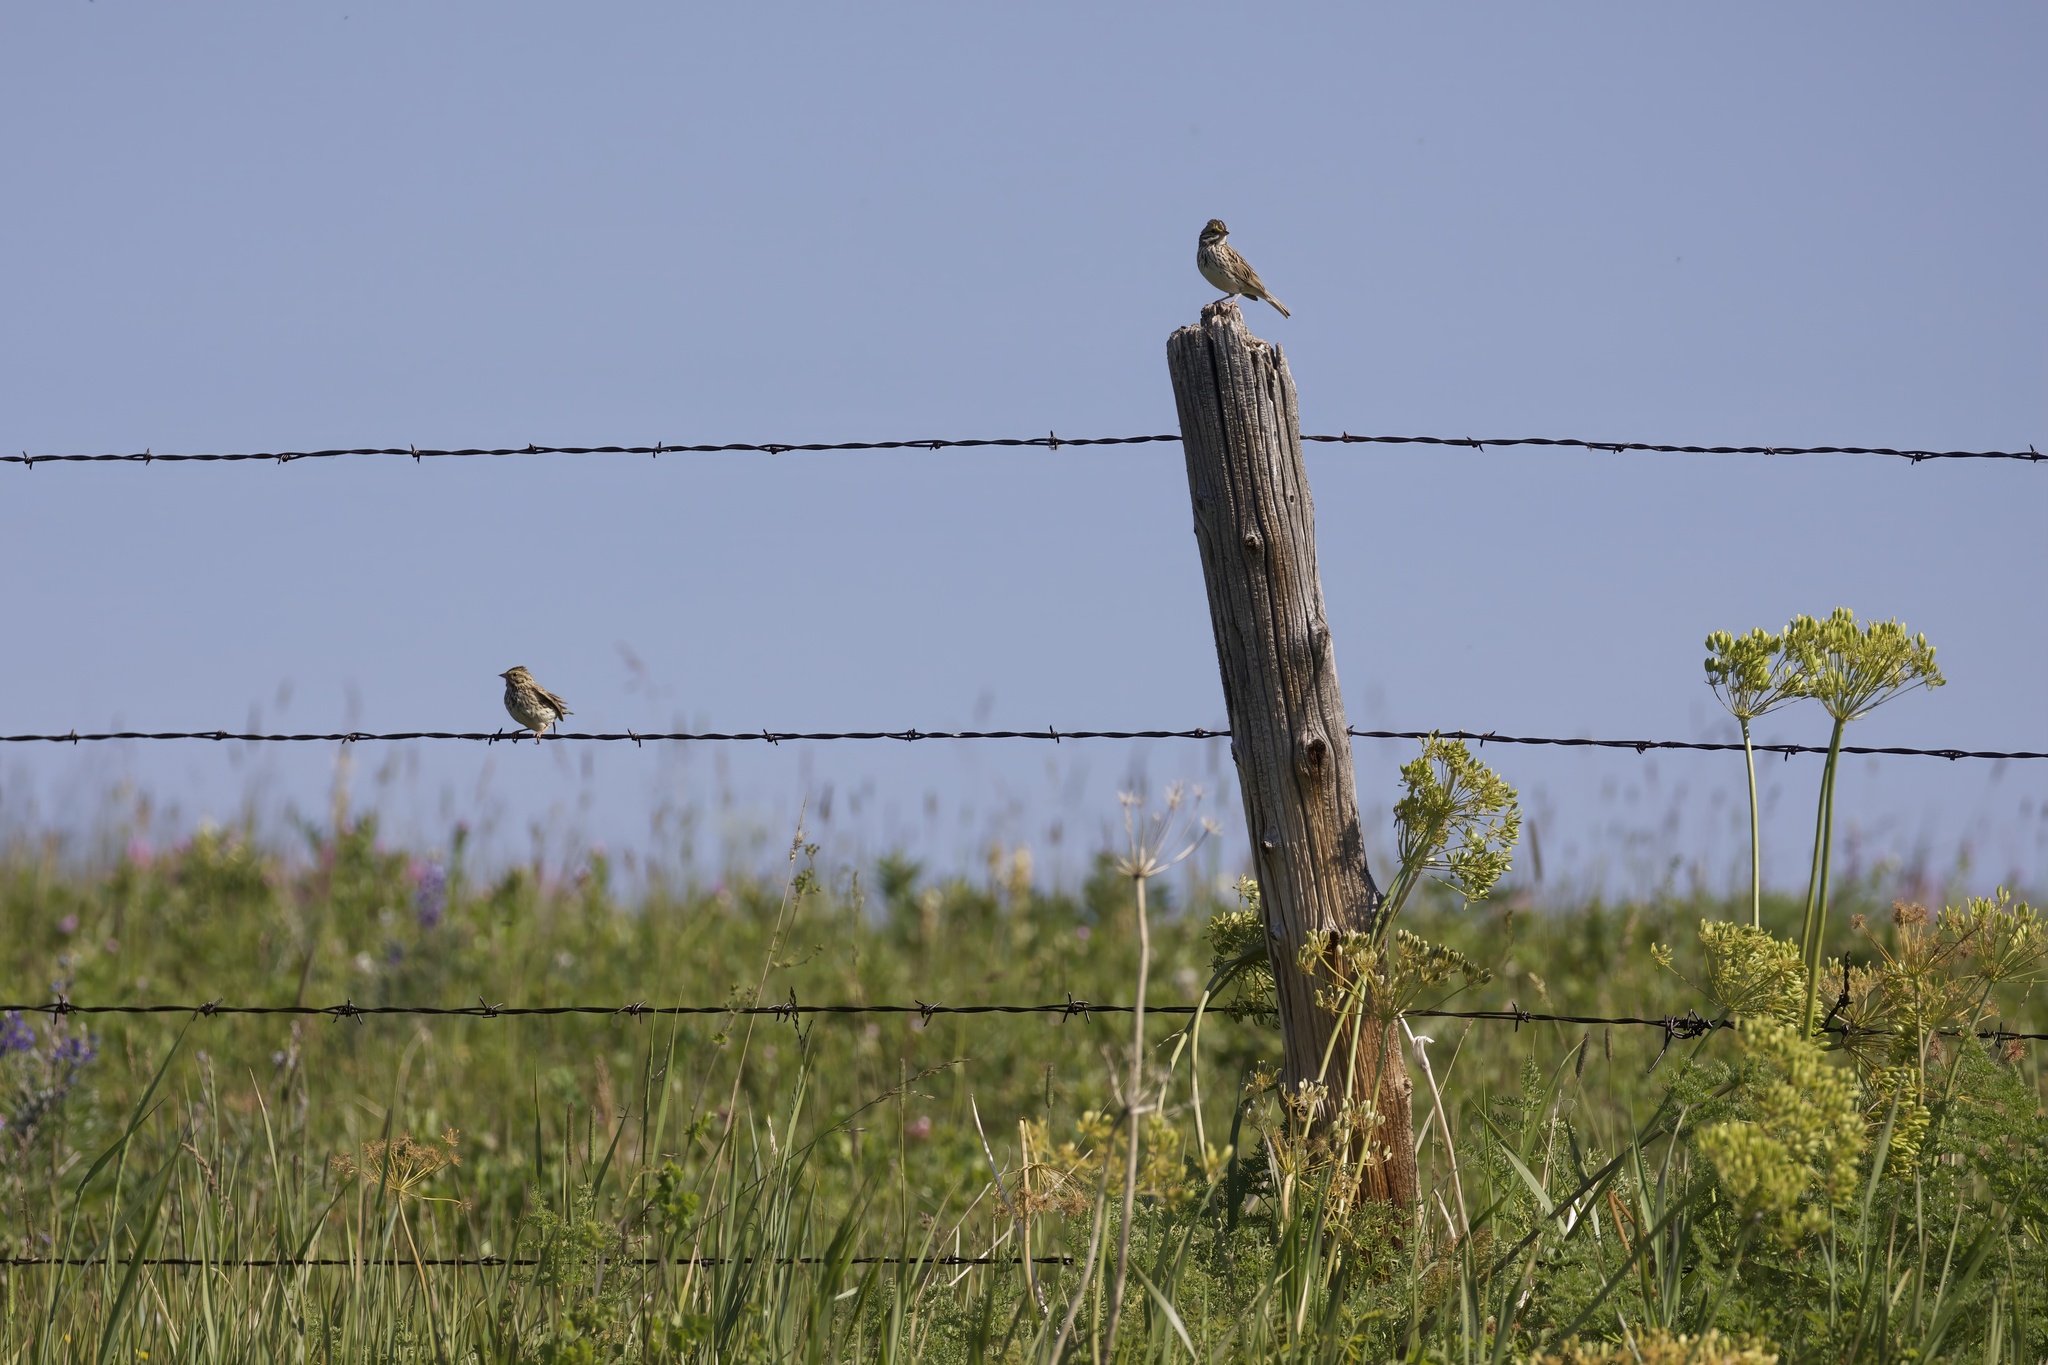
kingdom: Animalia
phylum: Chordata
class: Aves
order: Passeriformes
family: Passerellidae
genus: Passerculus
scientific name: Passerculus sandwichensis
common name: Savannah sparrow
